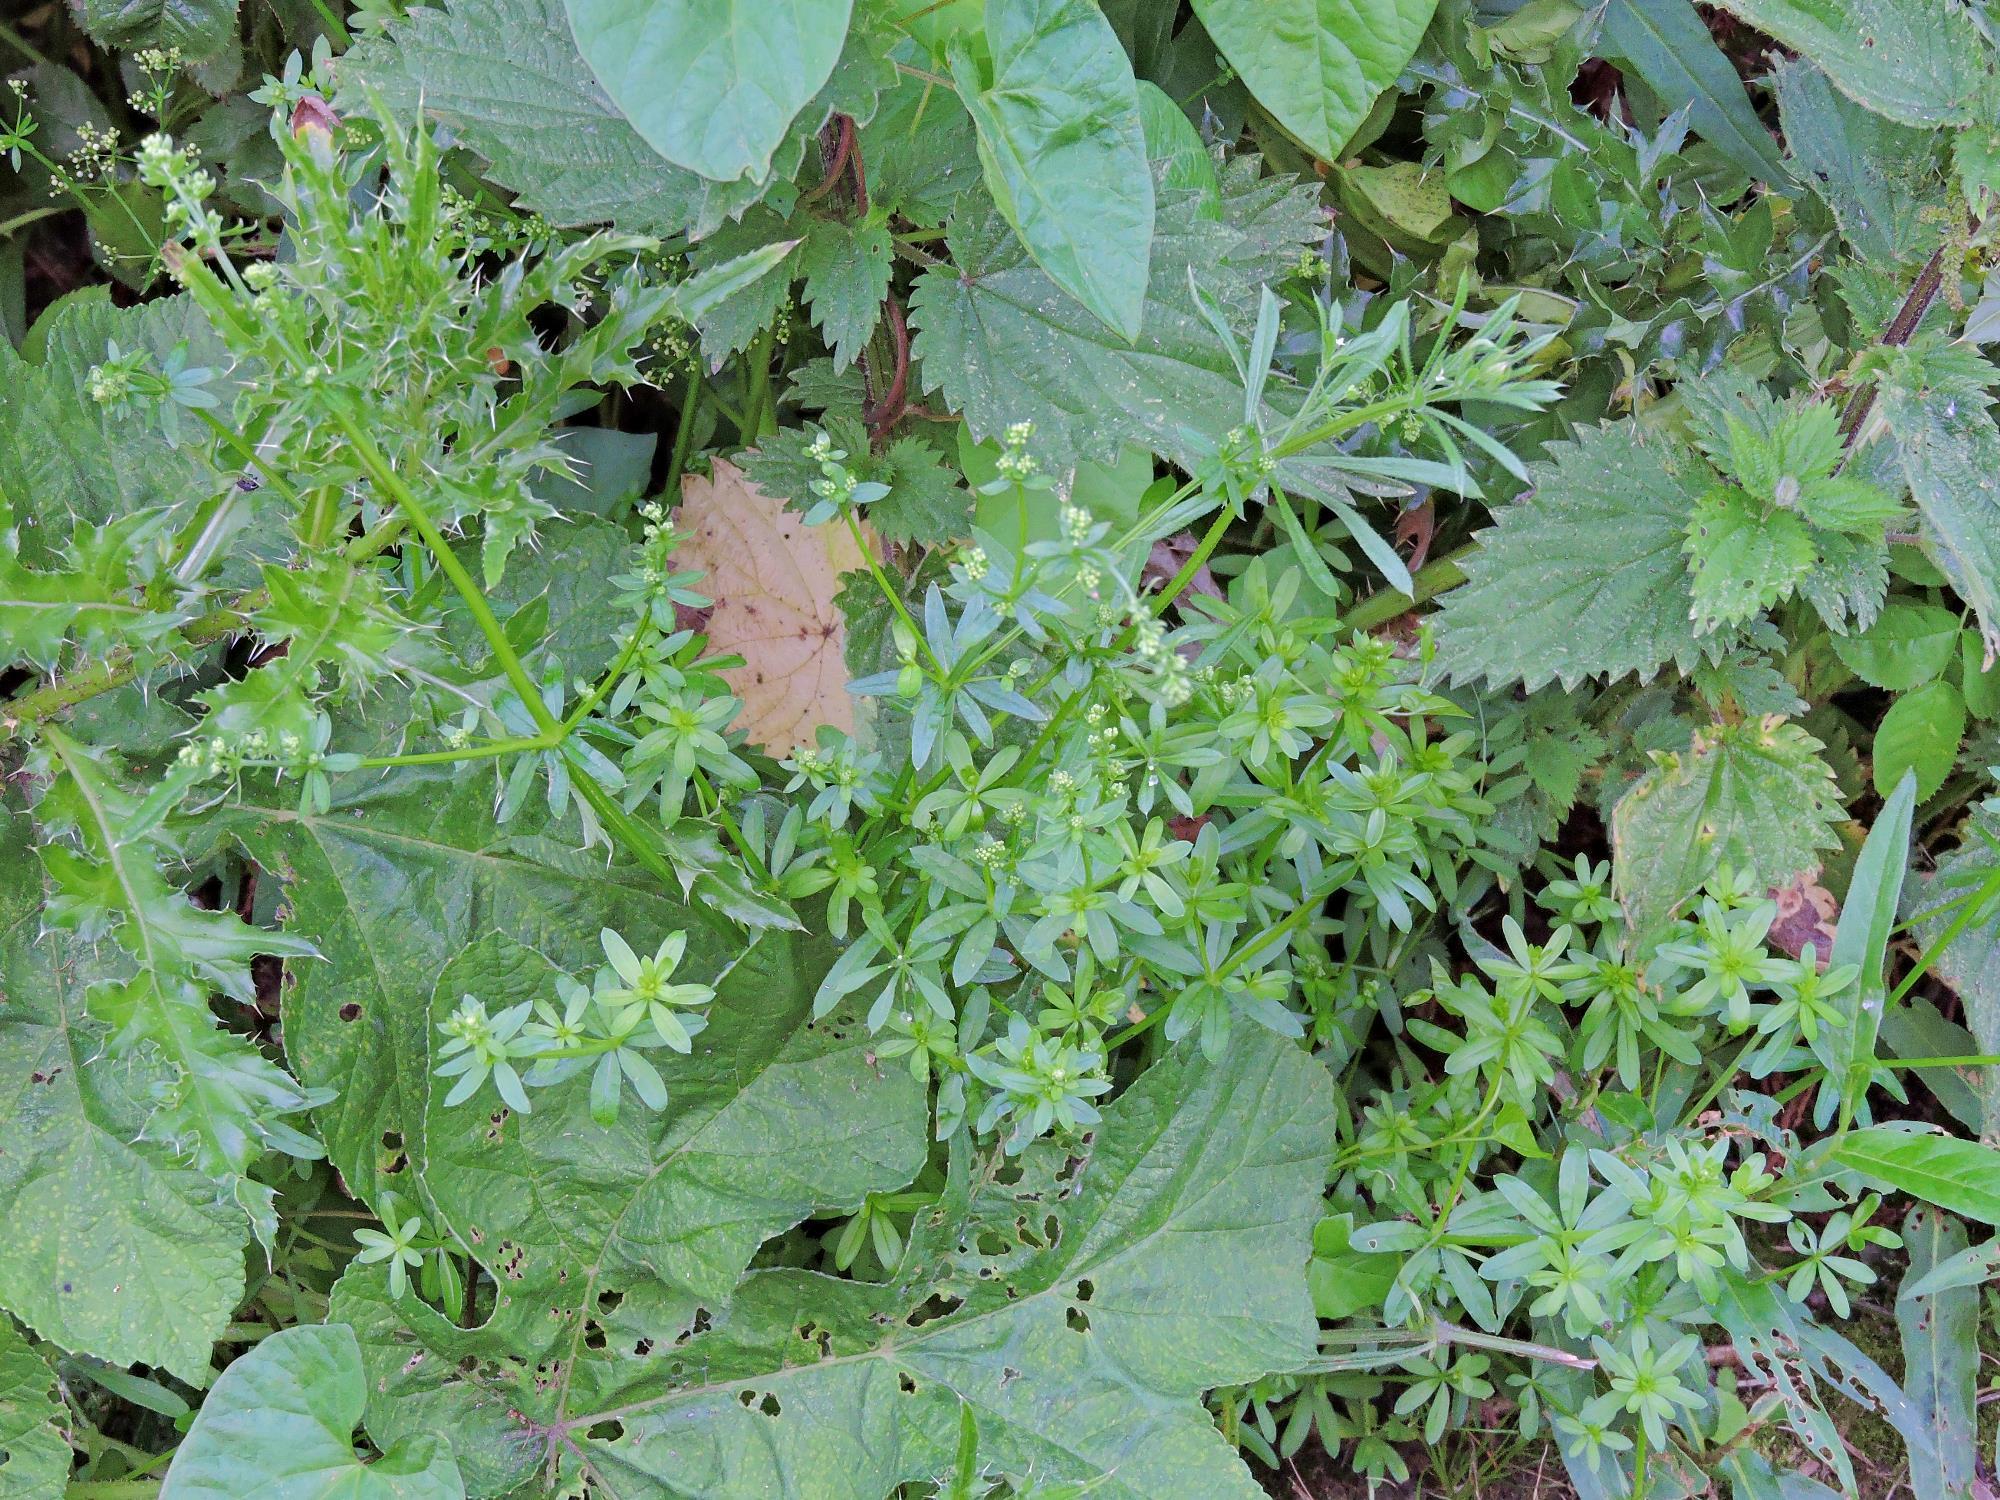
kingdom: Plantae
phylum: Tracheophyta
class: Magnoliopsida
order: Gentianales
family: Rubiaceae
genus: Galium
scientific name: Galium mollugo
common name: Hedge bedstraw
